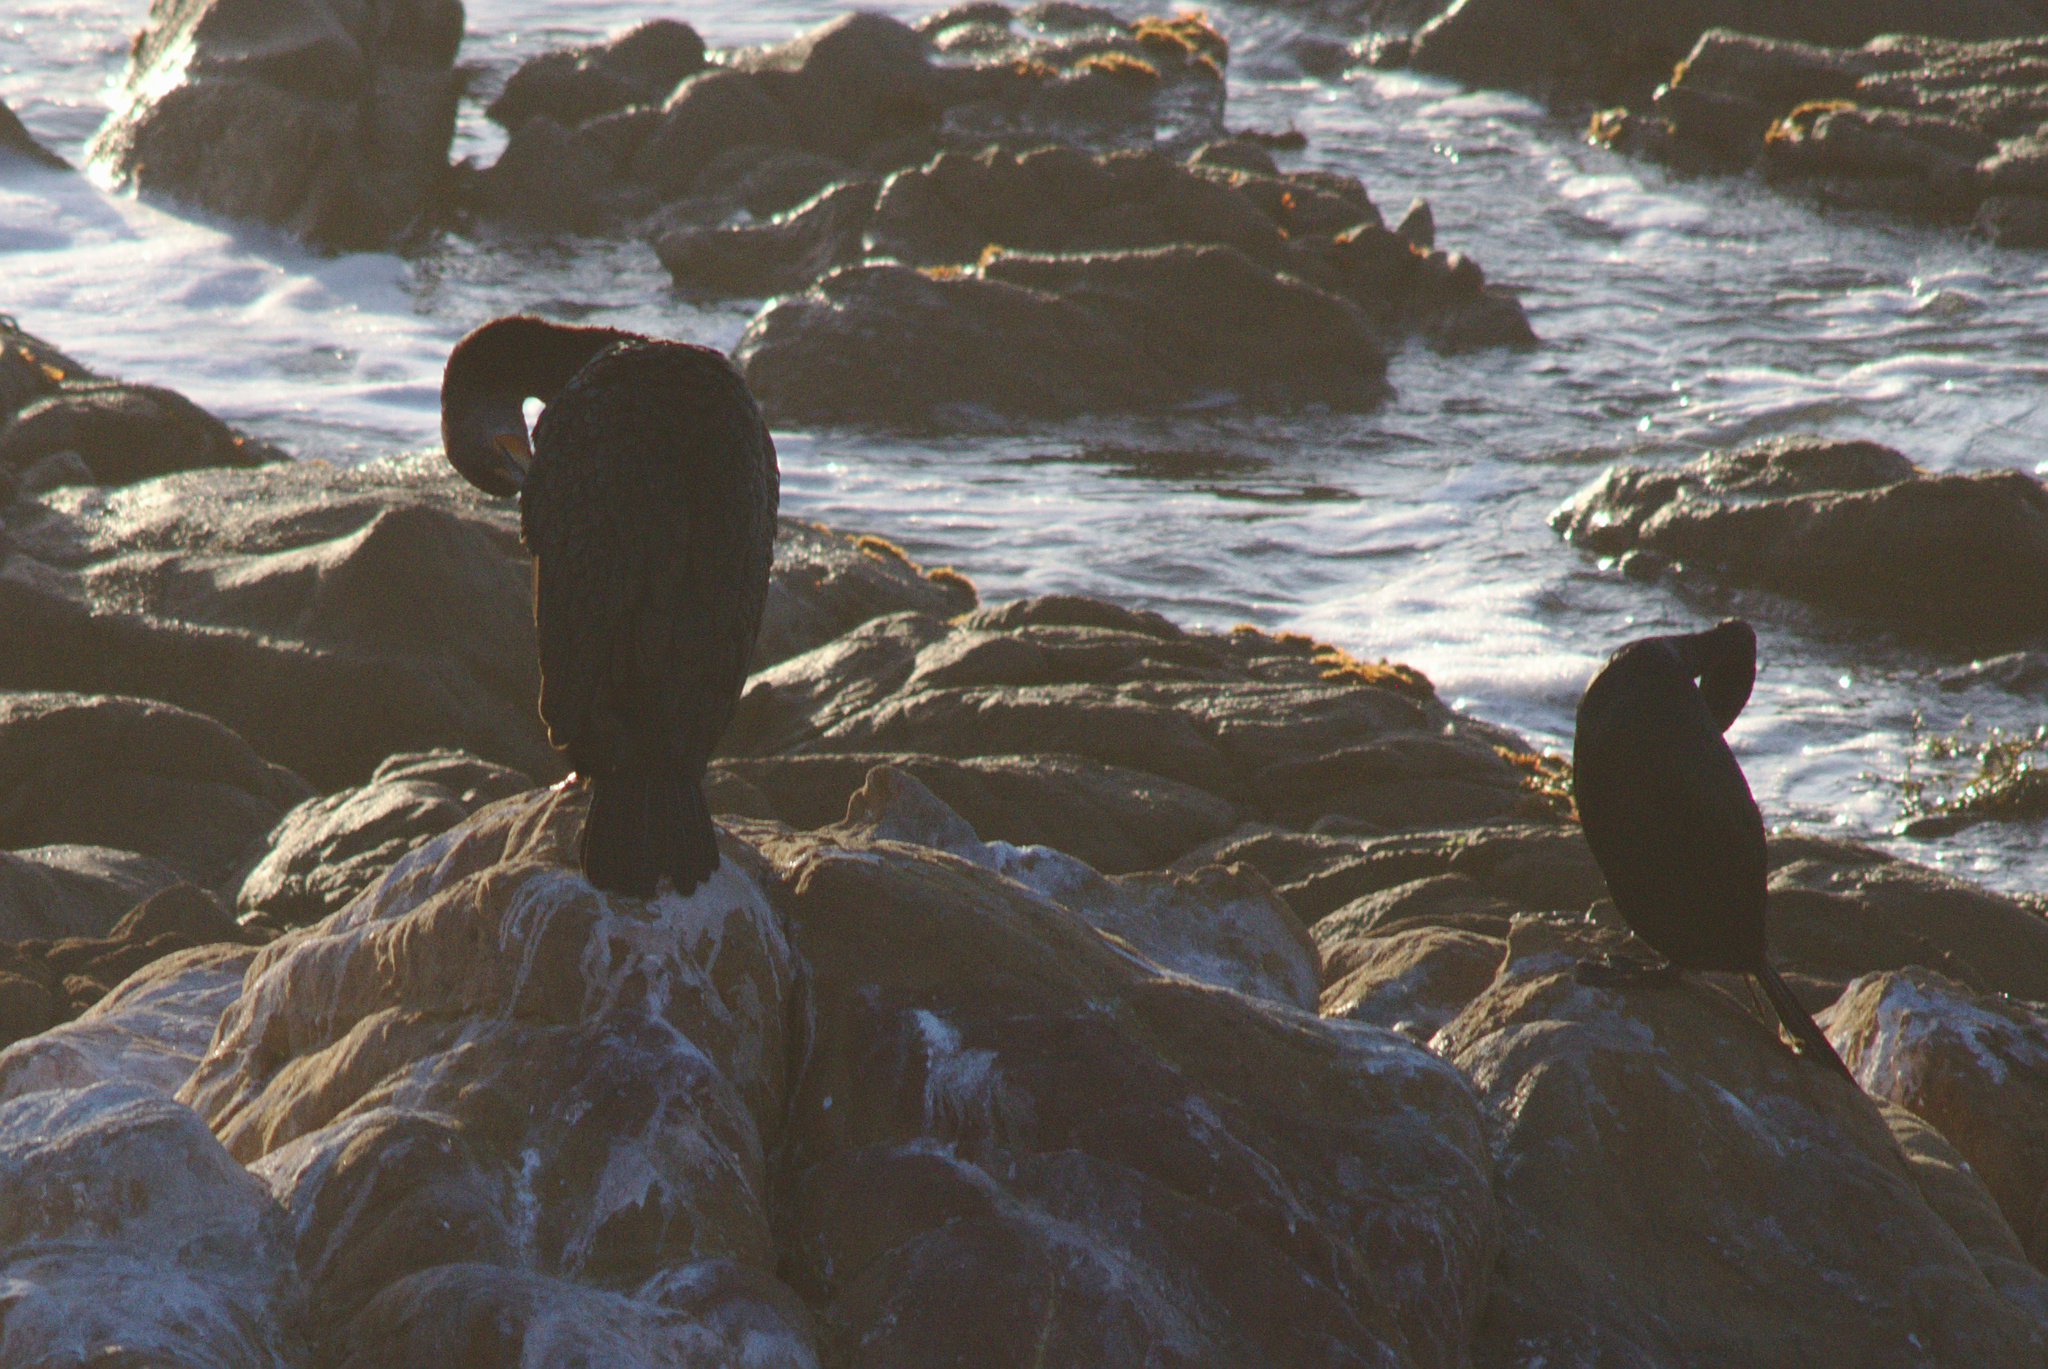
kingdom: Animalia
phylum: Chordata
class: Aves
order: Suliformes
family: Phalacrocoracidae
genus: Phalacrocorax
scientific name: Phalacrocorax auritus
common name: Double-crested cormorant
